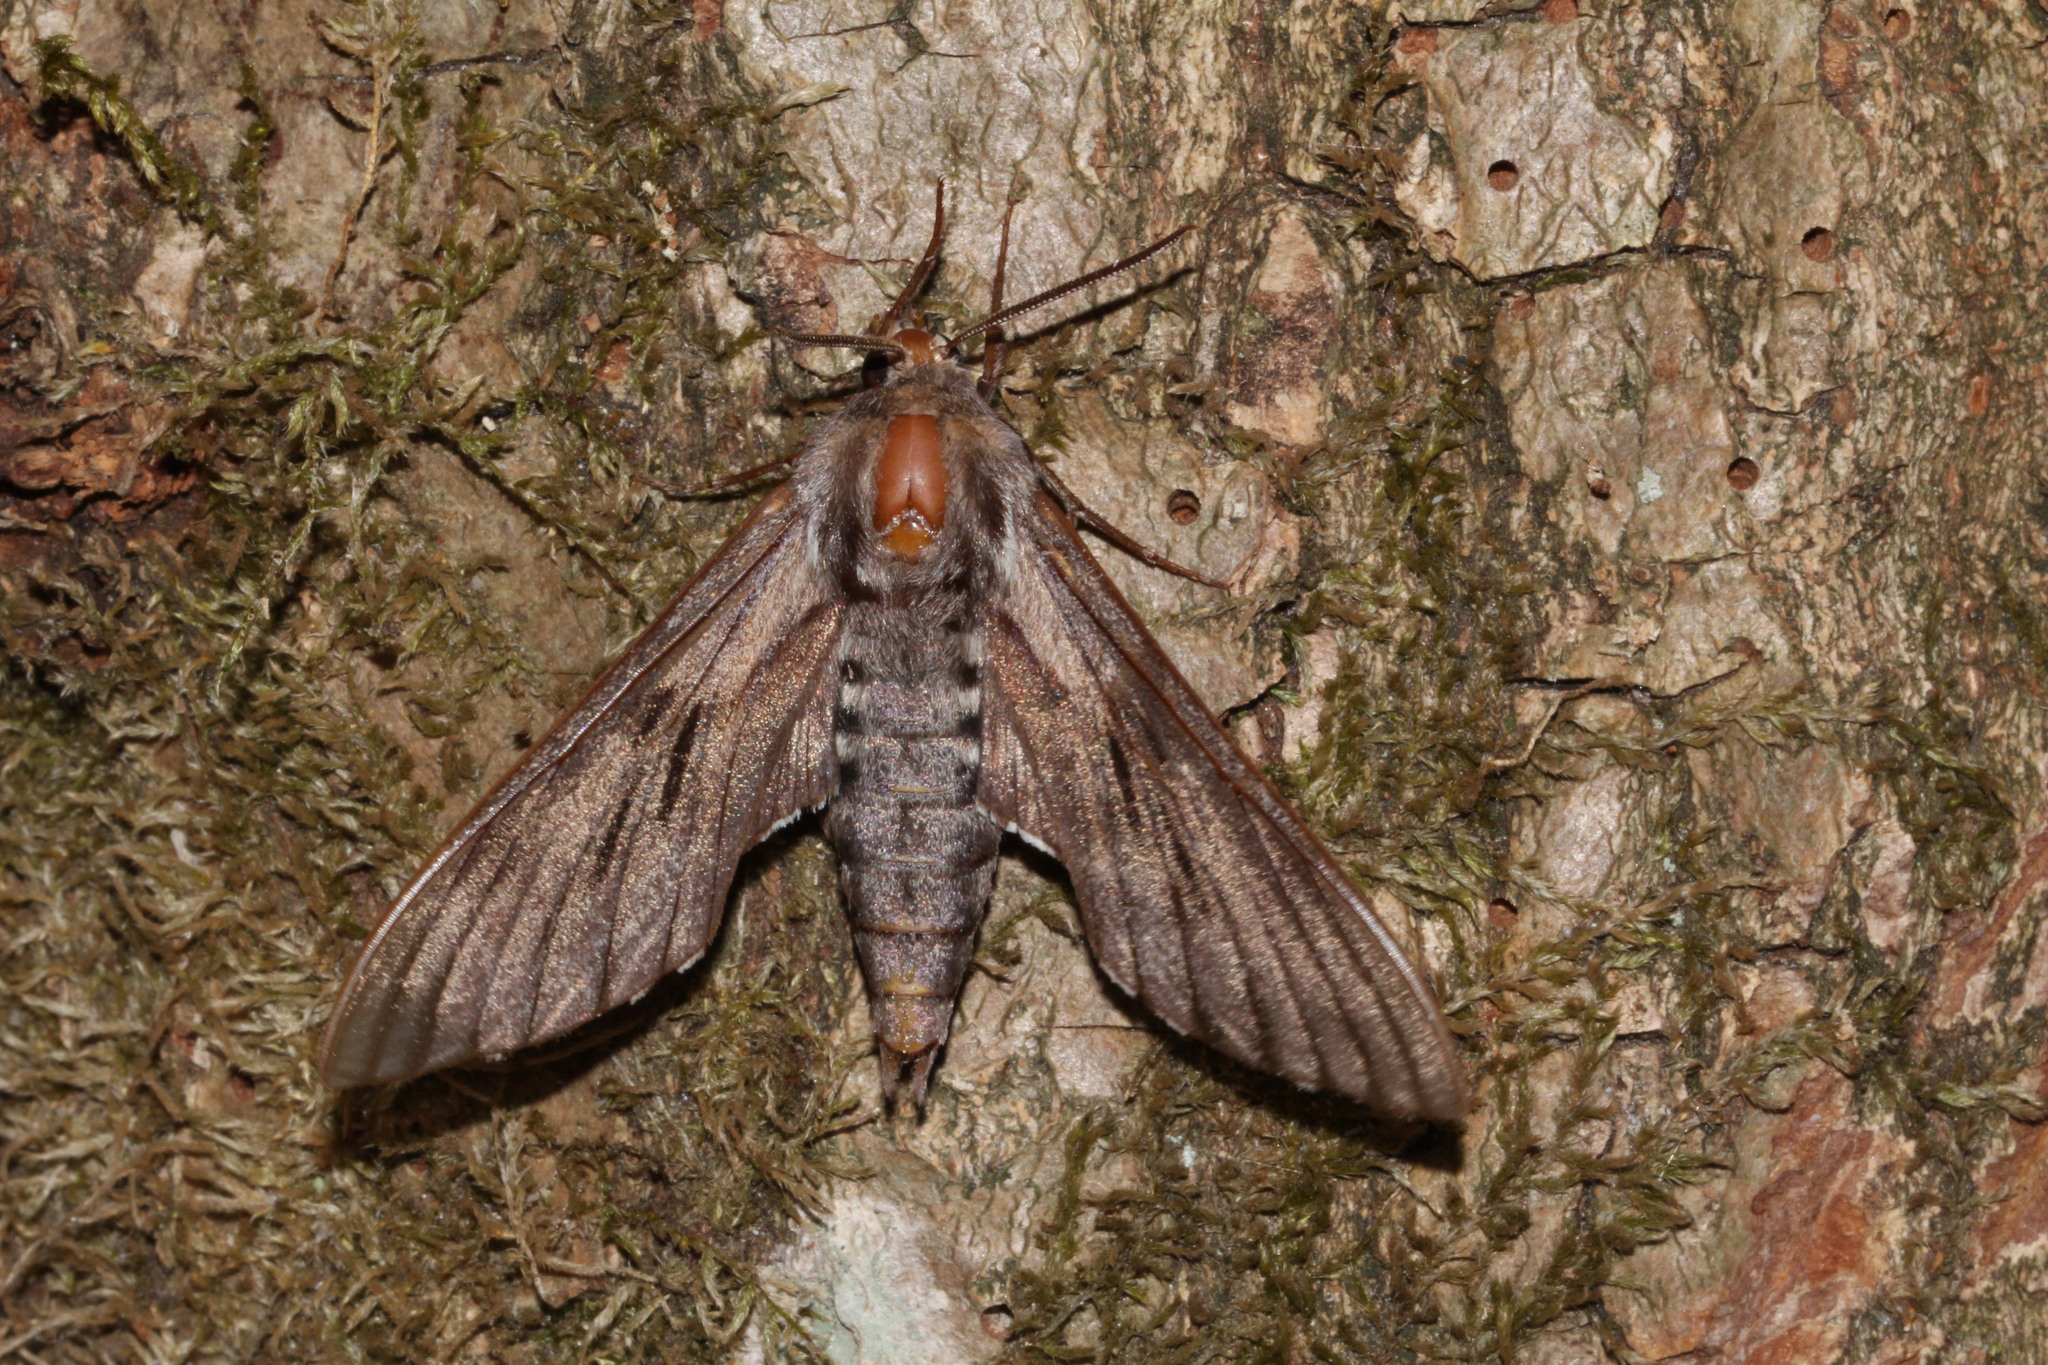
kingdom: Animalia
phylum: Arthropoda
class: Insecta
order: Lepidoptera
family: Sphingidae
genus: Sphinx
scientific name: Sphinx pinastri
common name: Pine hawk-moth
